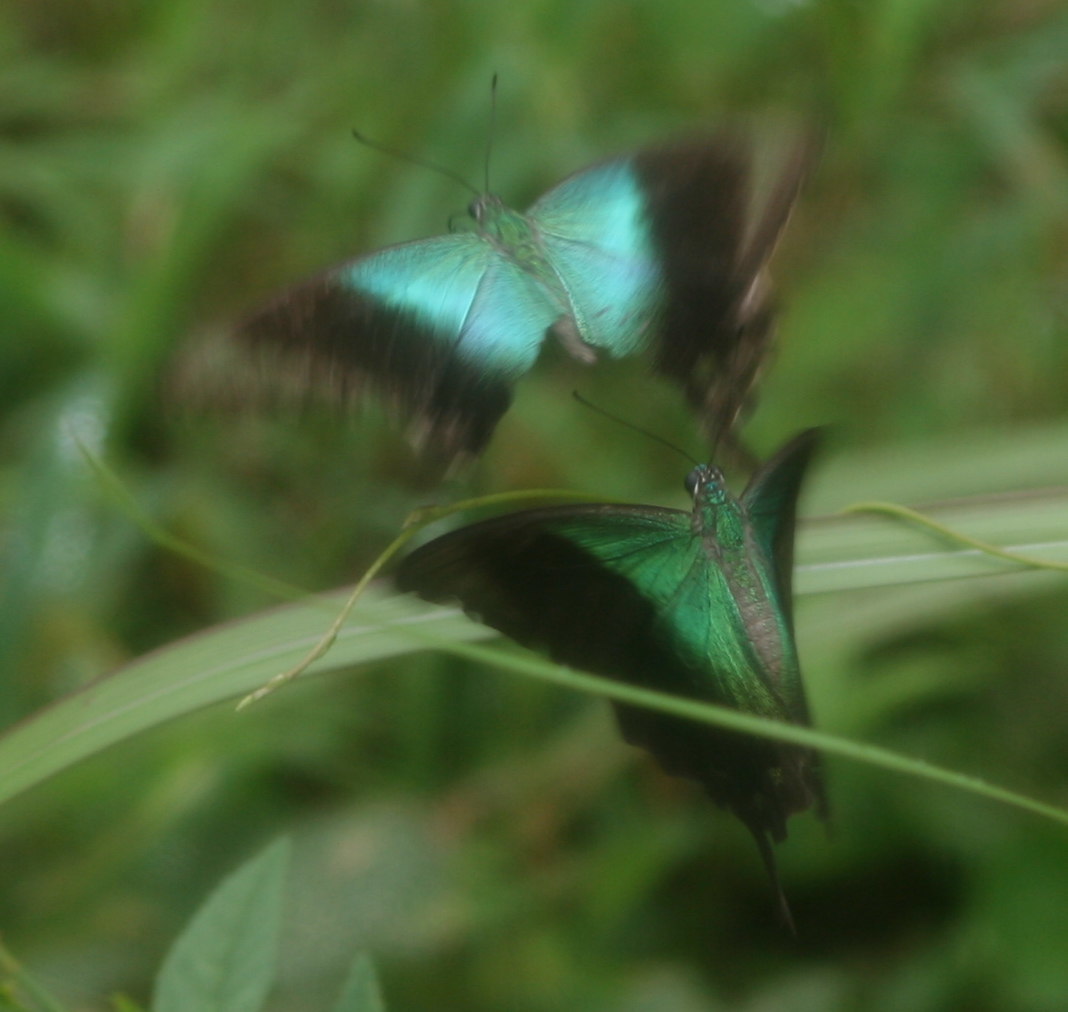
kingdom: Animalia
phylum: Arthropoda
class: Insecta
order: Lepidoptera
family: Papilionidae
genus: Papilio
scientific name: Papilio peranthus
